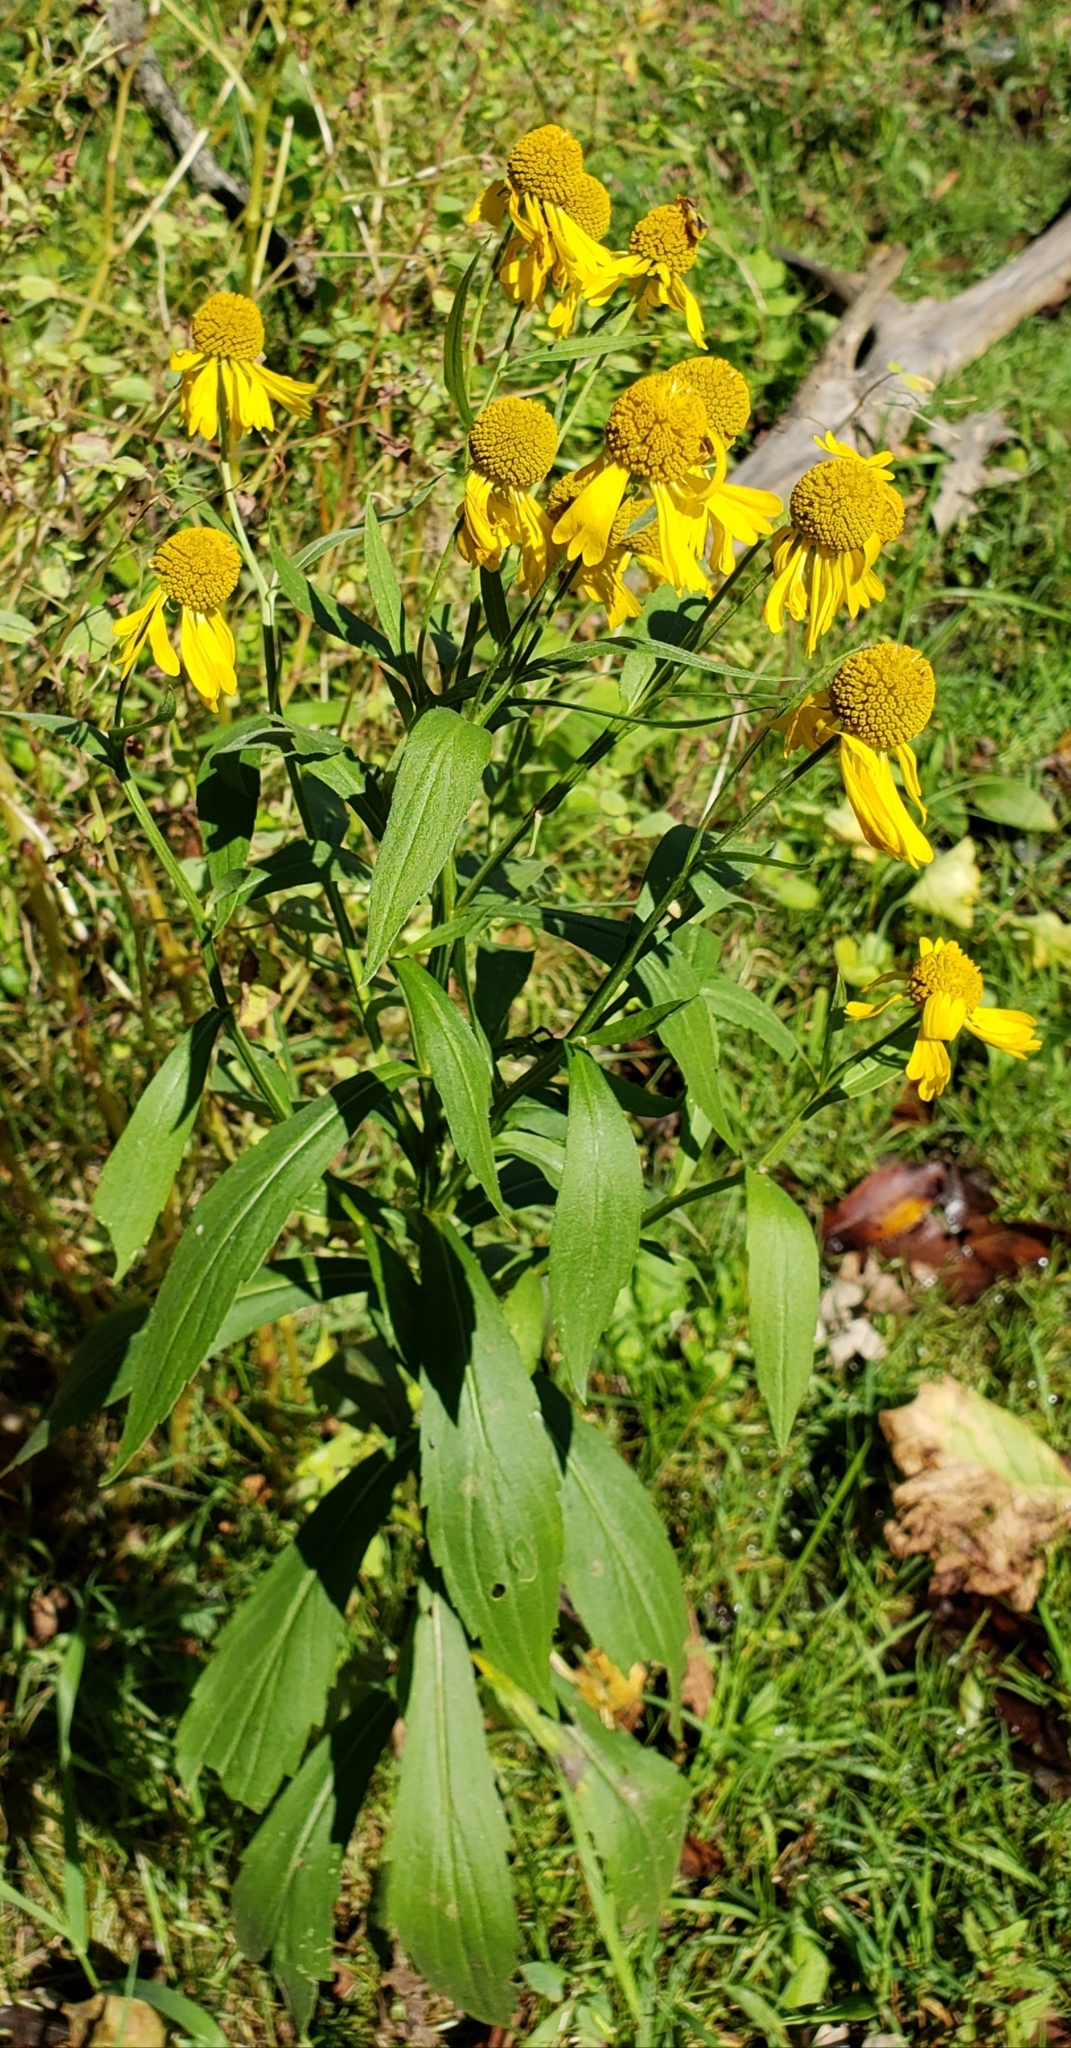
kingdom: Plantae
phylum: Tracheophyta
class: Magnoliopsida
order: Asterales
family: Asteraceae
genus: Helenium
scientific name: Helenium autumnale
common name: Sneezeweed
